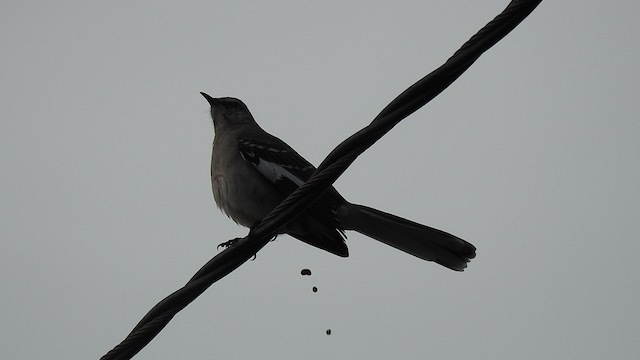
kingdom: Animalia
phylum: Chordata
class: Aves
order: Passeriformes
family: Mimidae
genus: Mimus
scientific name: Mimus polyglottos
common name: Northern mockingbird
